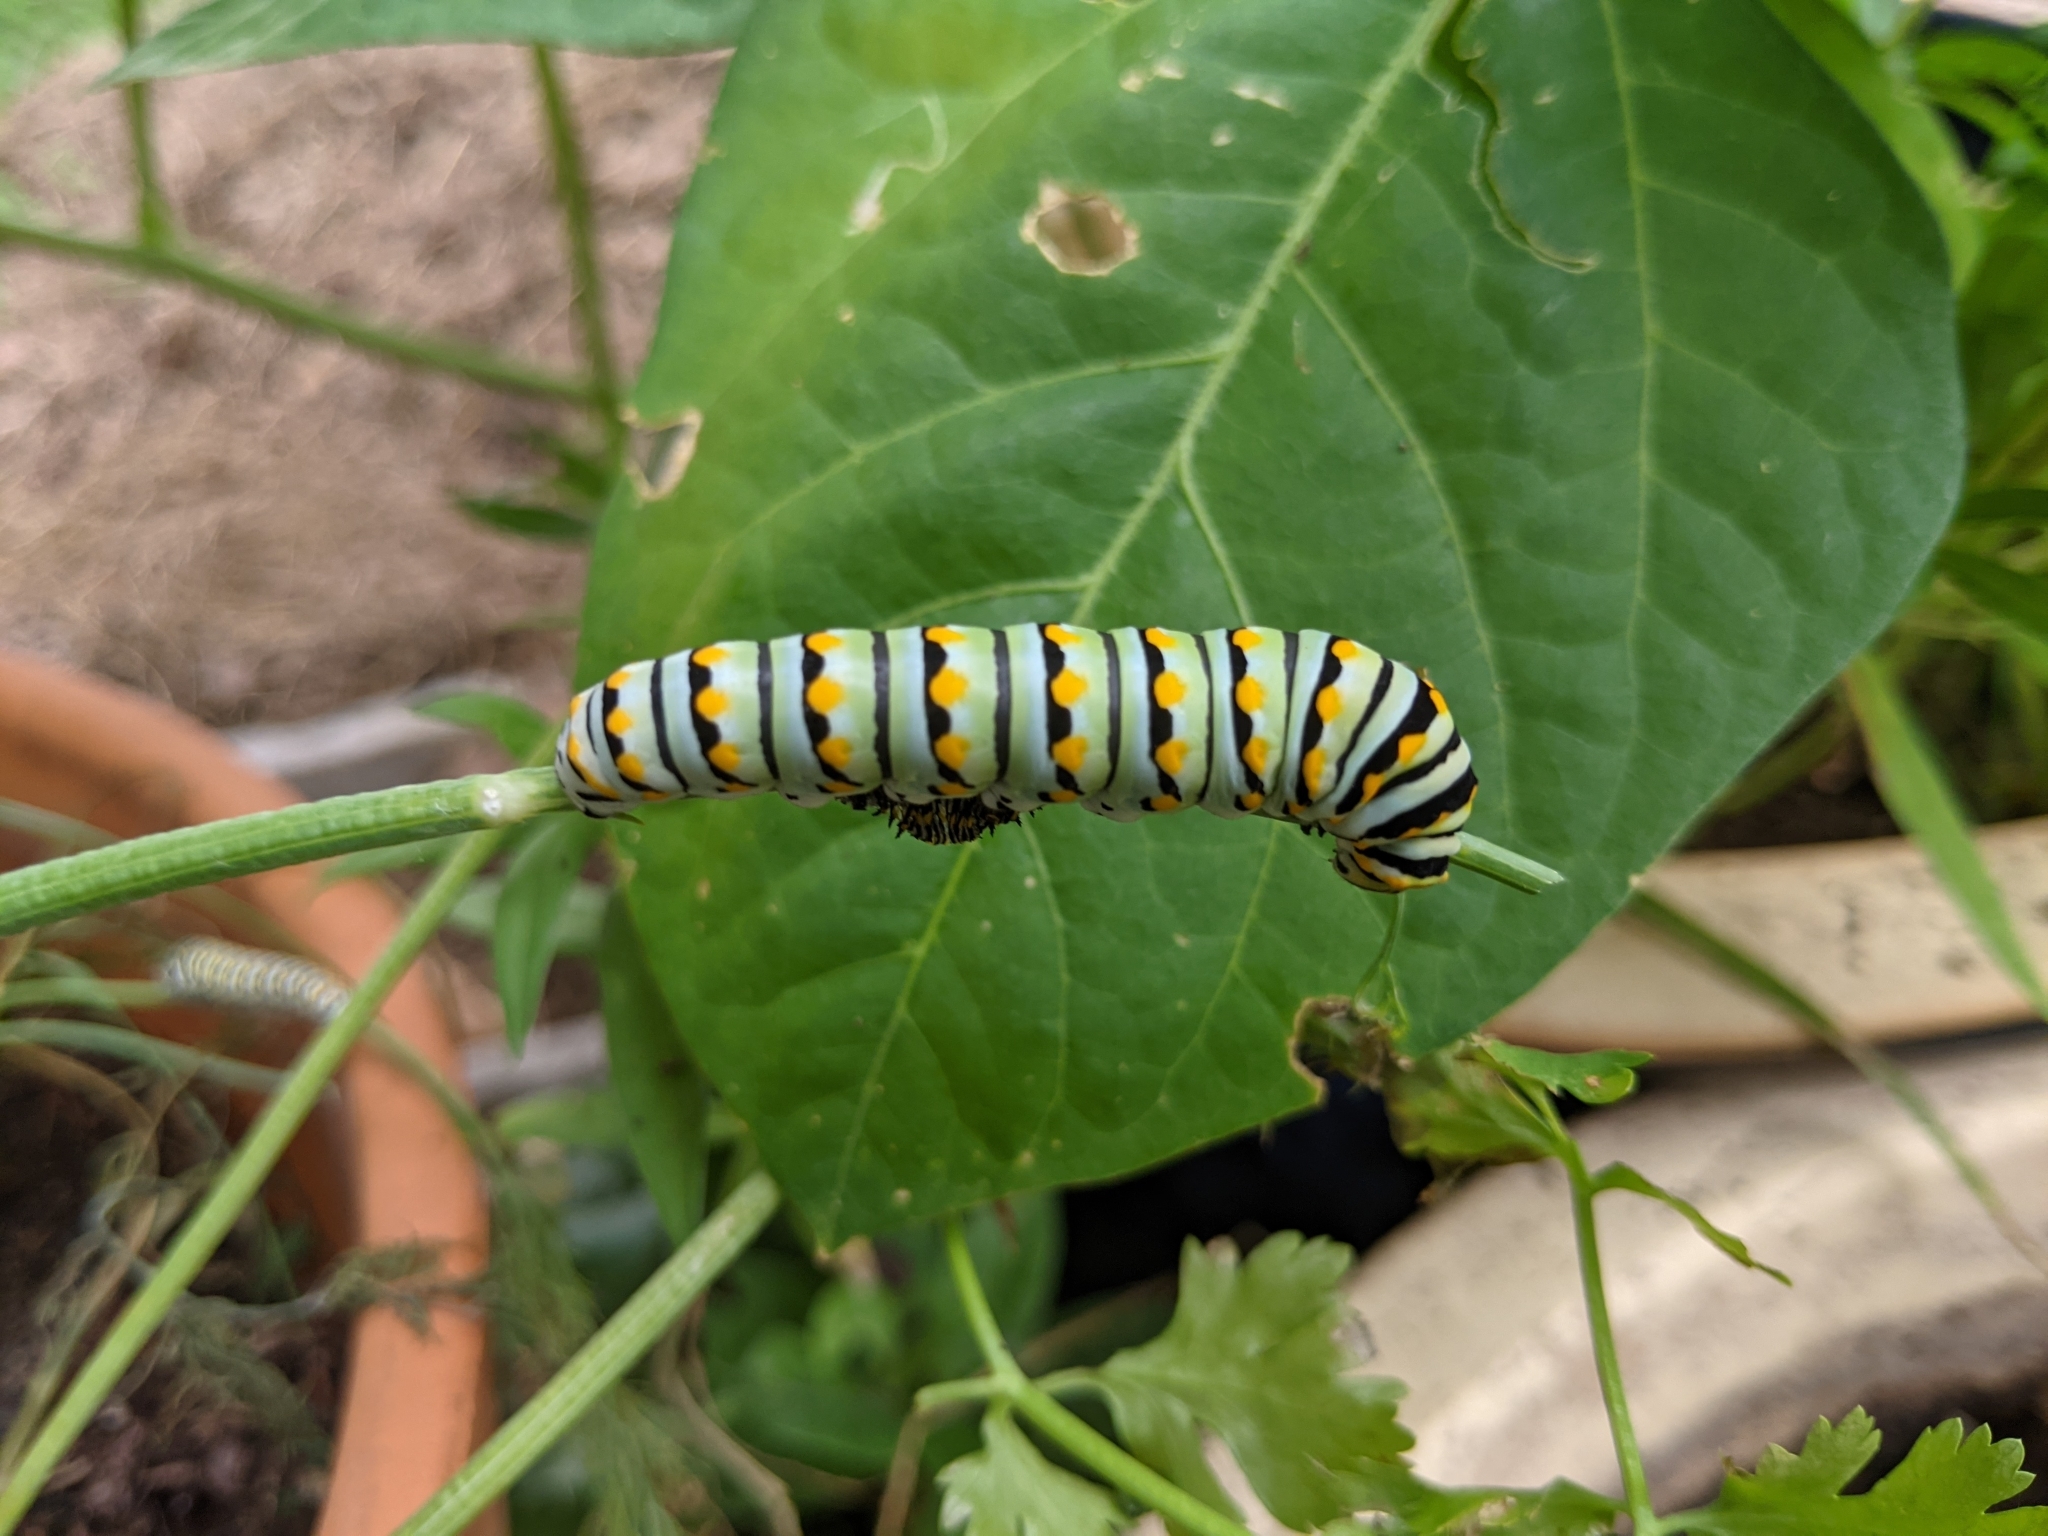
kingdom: Animalia
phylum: Arthropoda
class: Insecta
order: Lepidoptera
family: Papilionidae
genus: Papilio
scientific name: Papilio polyxenes
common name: Black swallowtail
